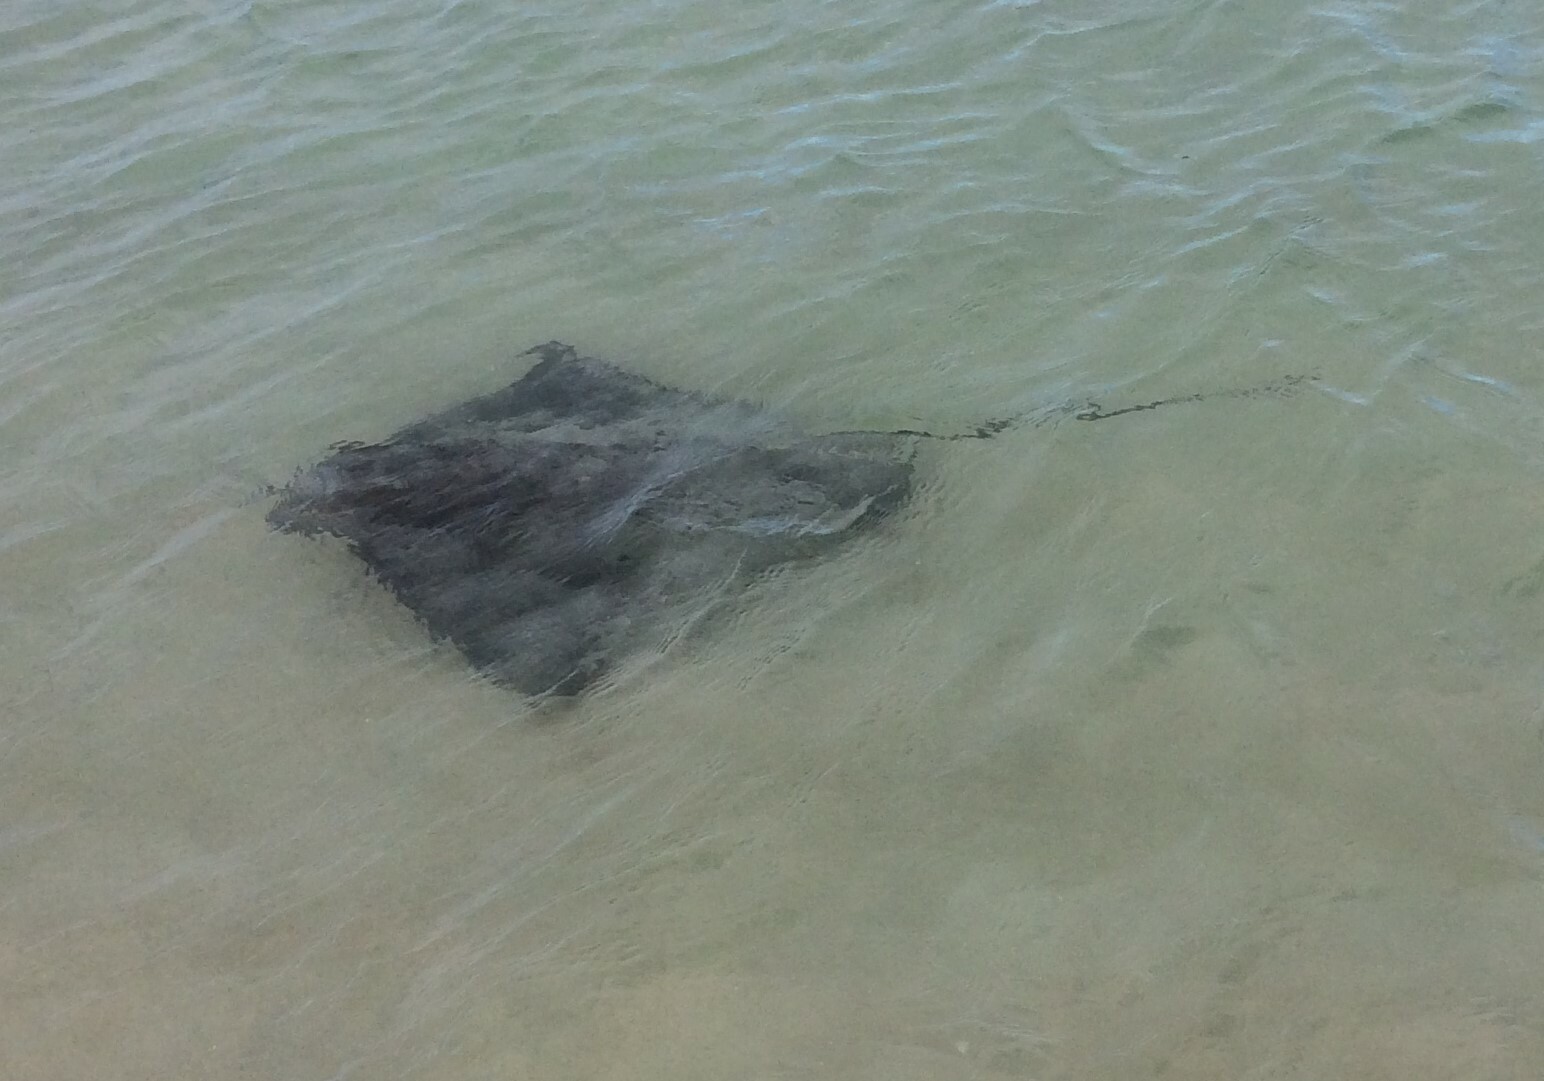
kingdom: Animalia
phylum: Chordata
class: Elasmobranchii
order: Myliobatiformes
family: Myliobatidae
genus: Myliobatis
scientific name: Myliobatis tenuicaudatus
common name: Eagle ray
